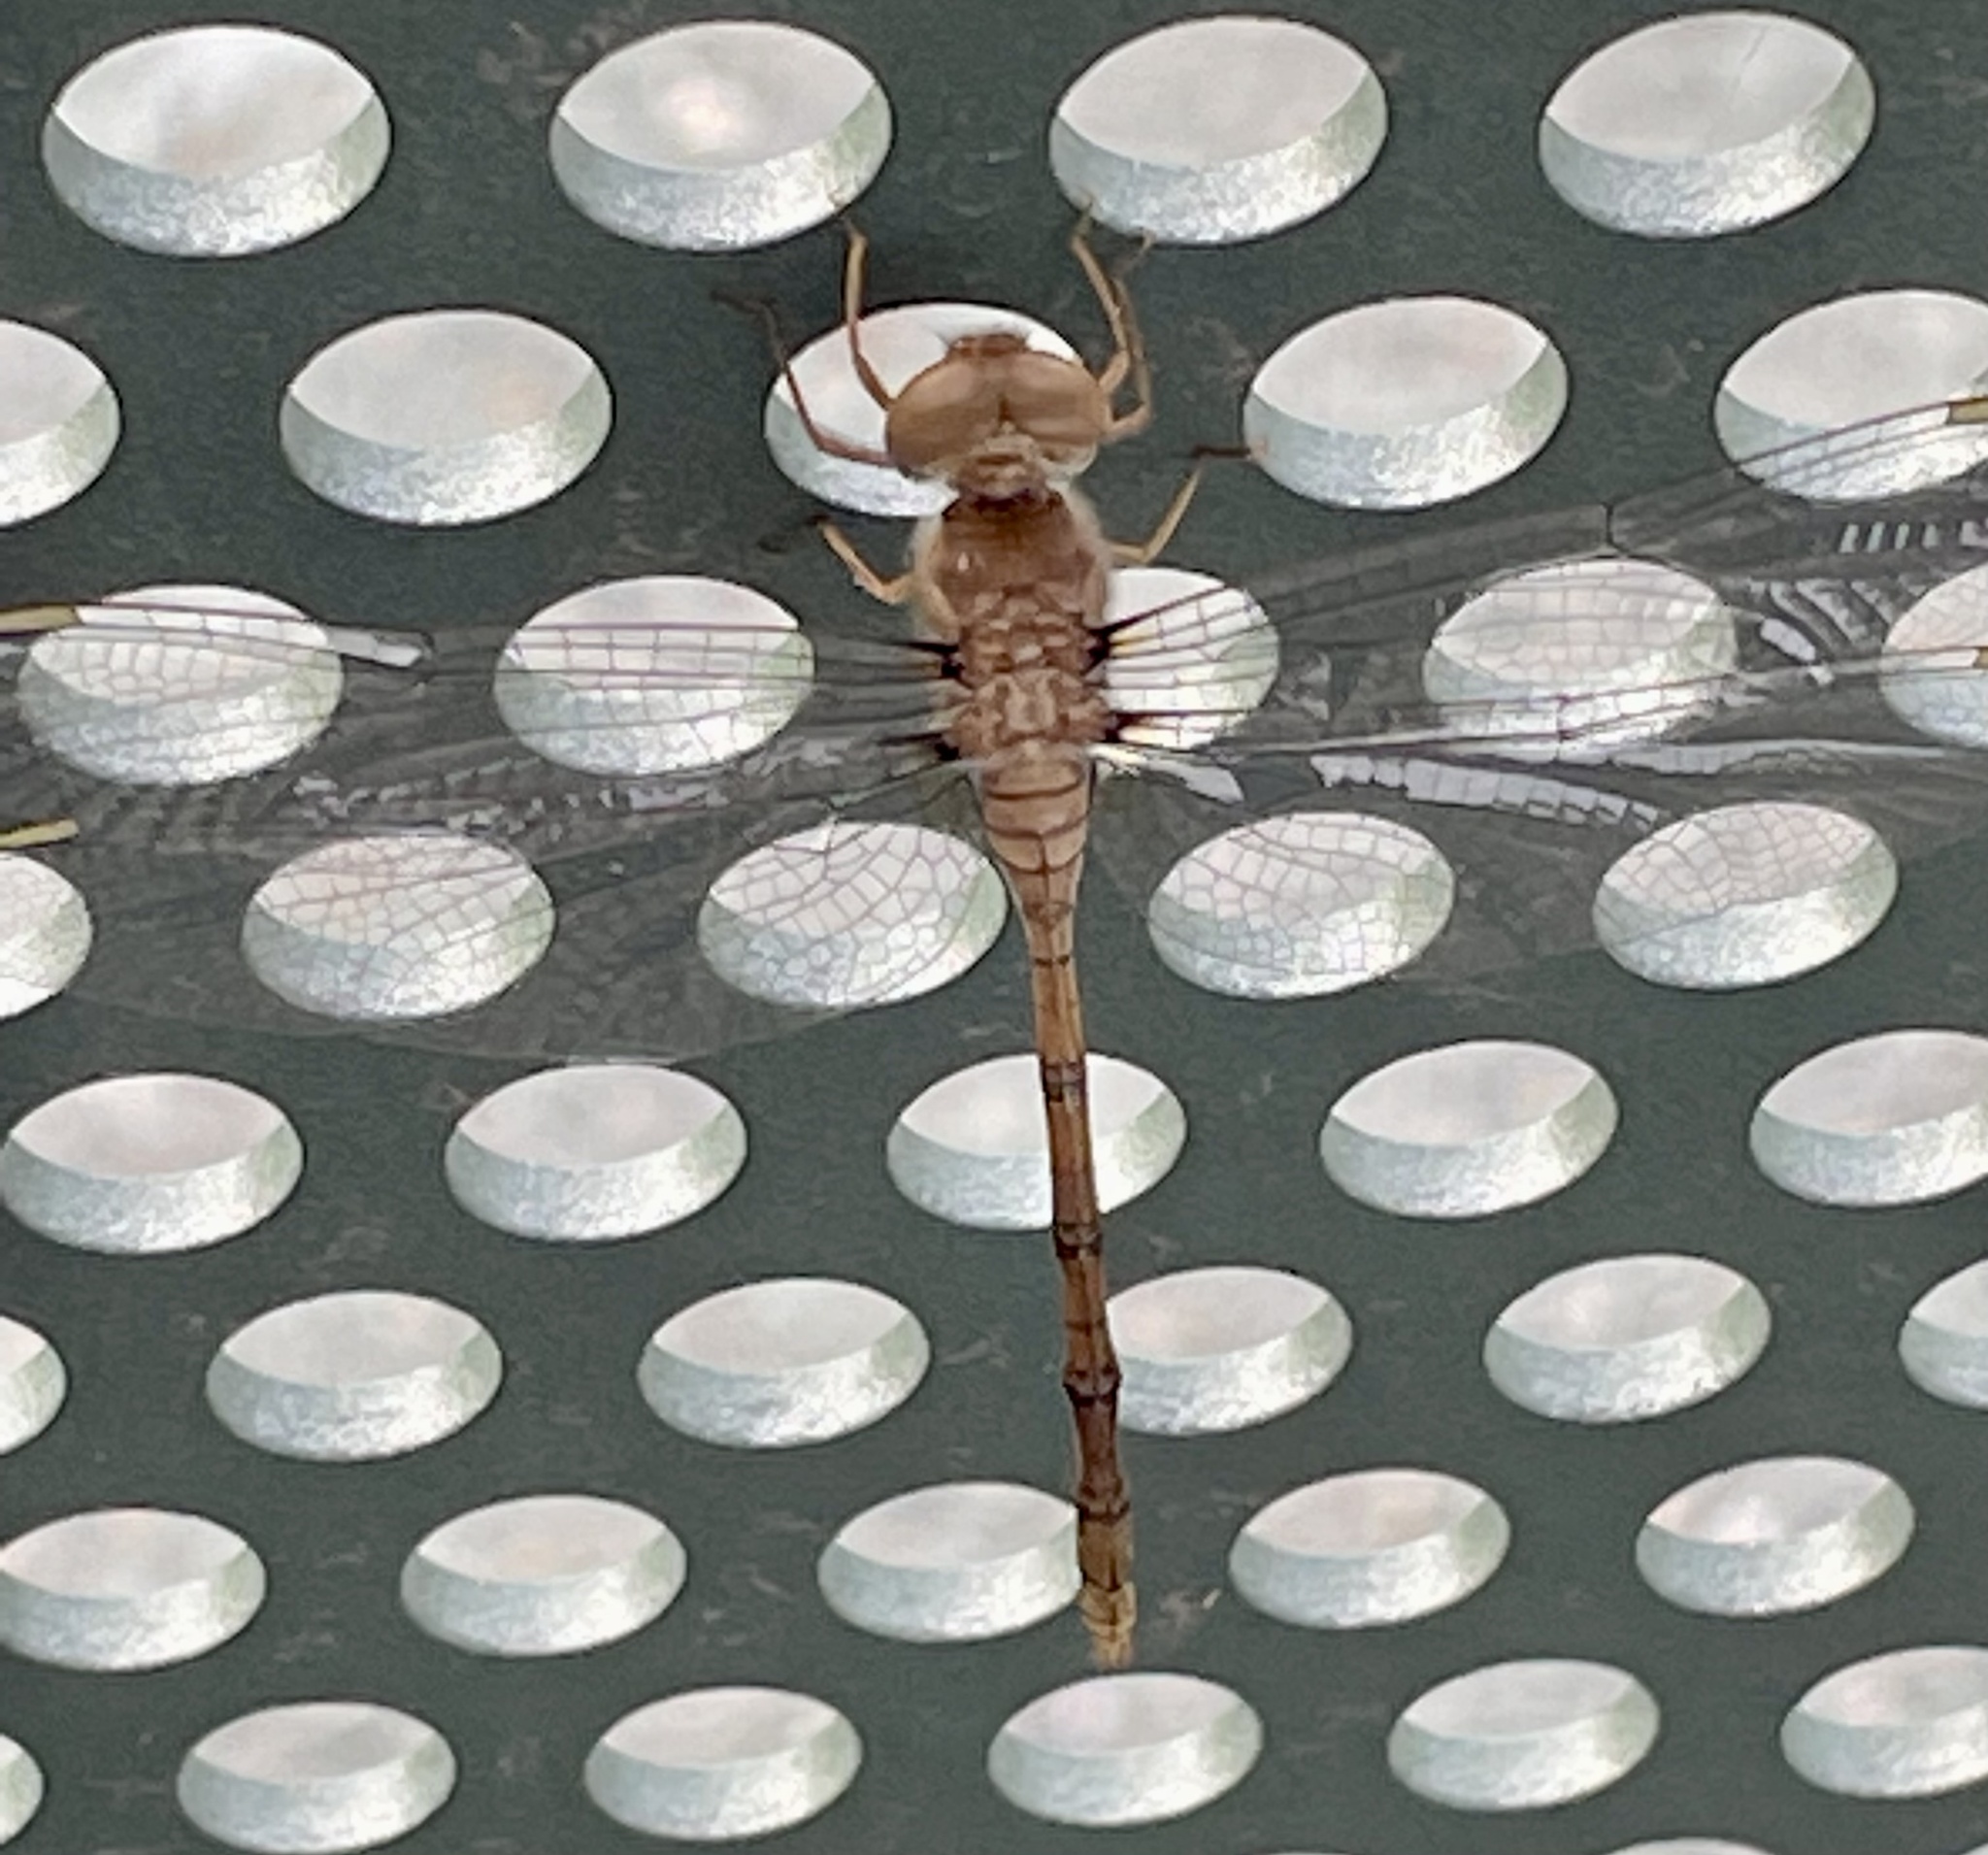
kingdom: Animalia
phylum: Arthropoda
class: Insecta
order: Odonata
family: Libellulidae
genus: Zyxomma
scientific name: Zyxomma elgneri
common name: Short-tailed duskdarter
